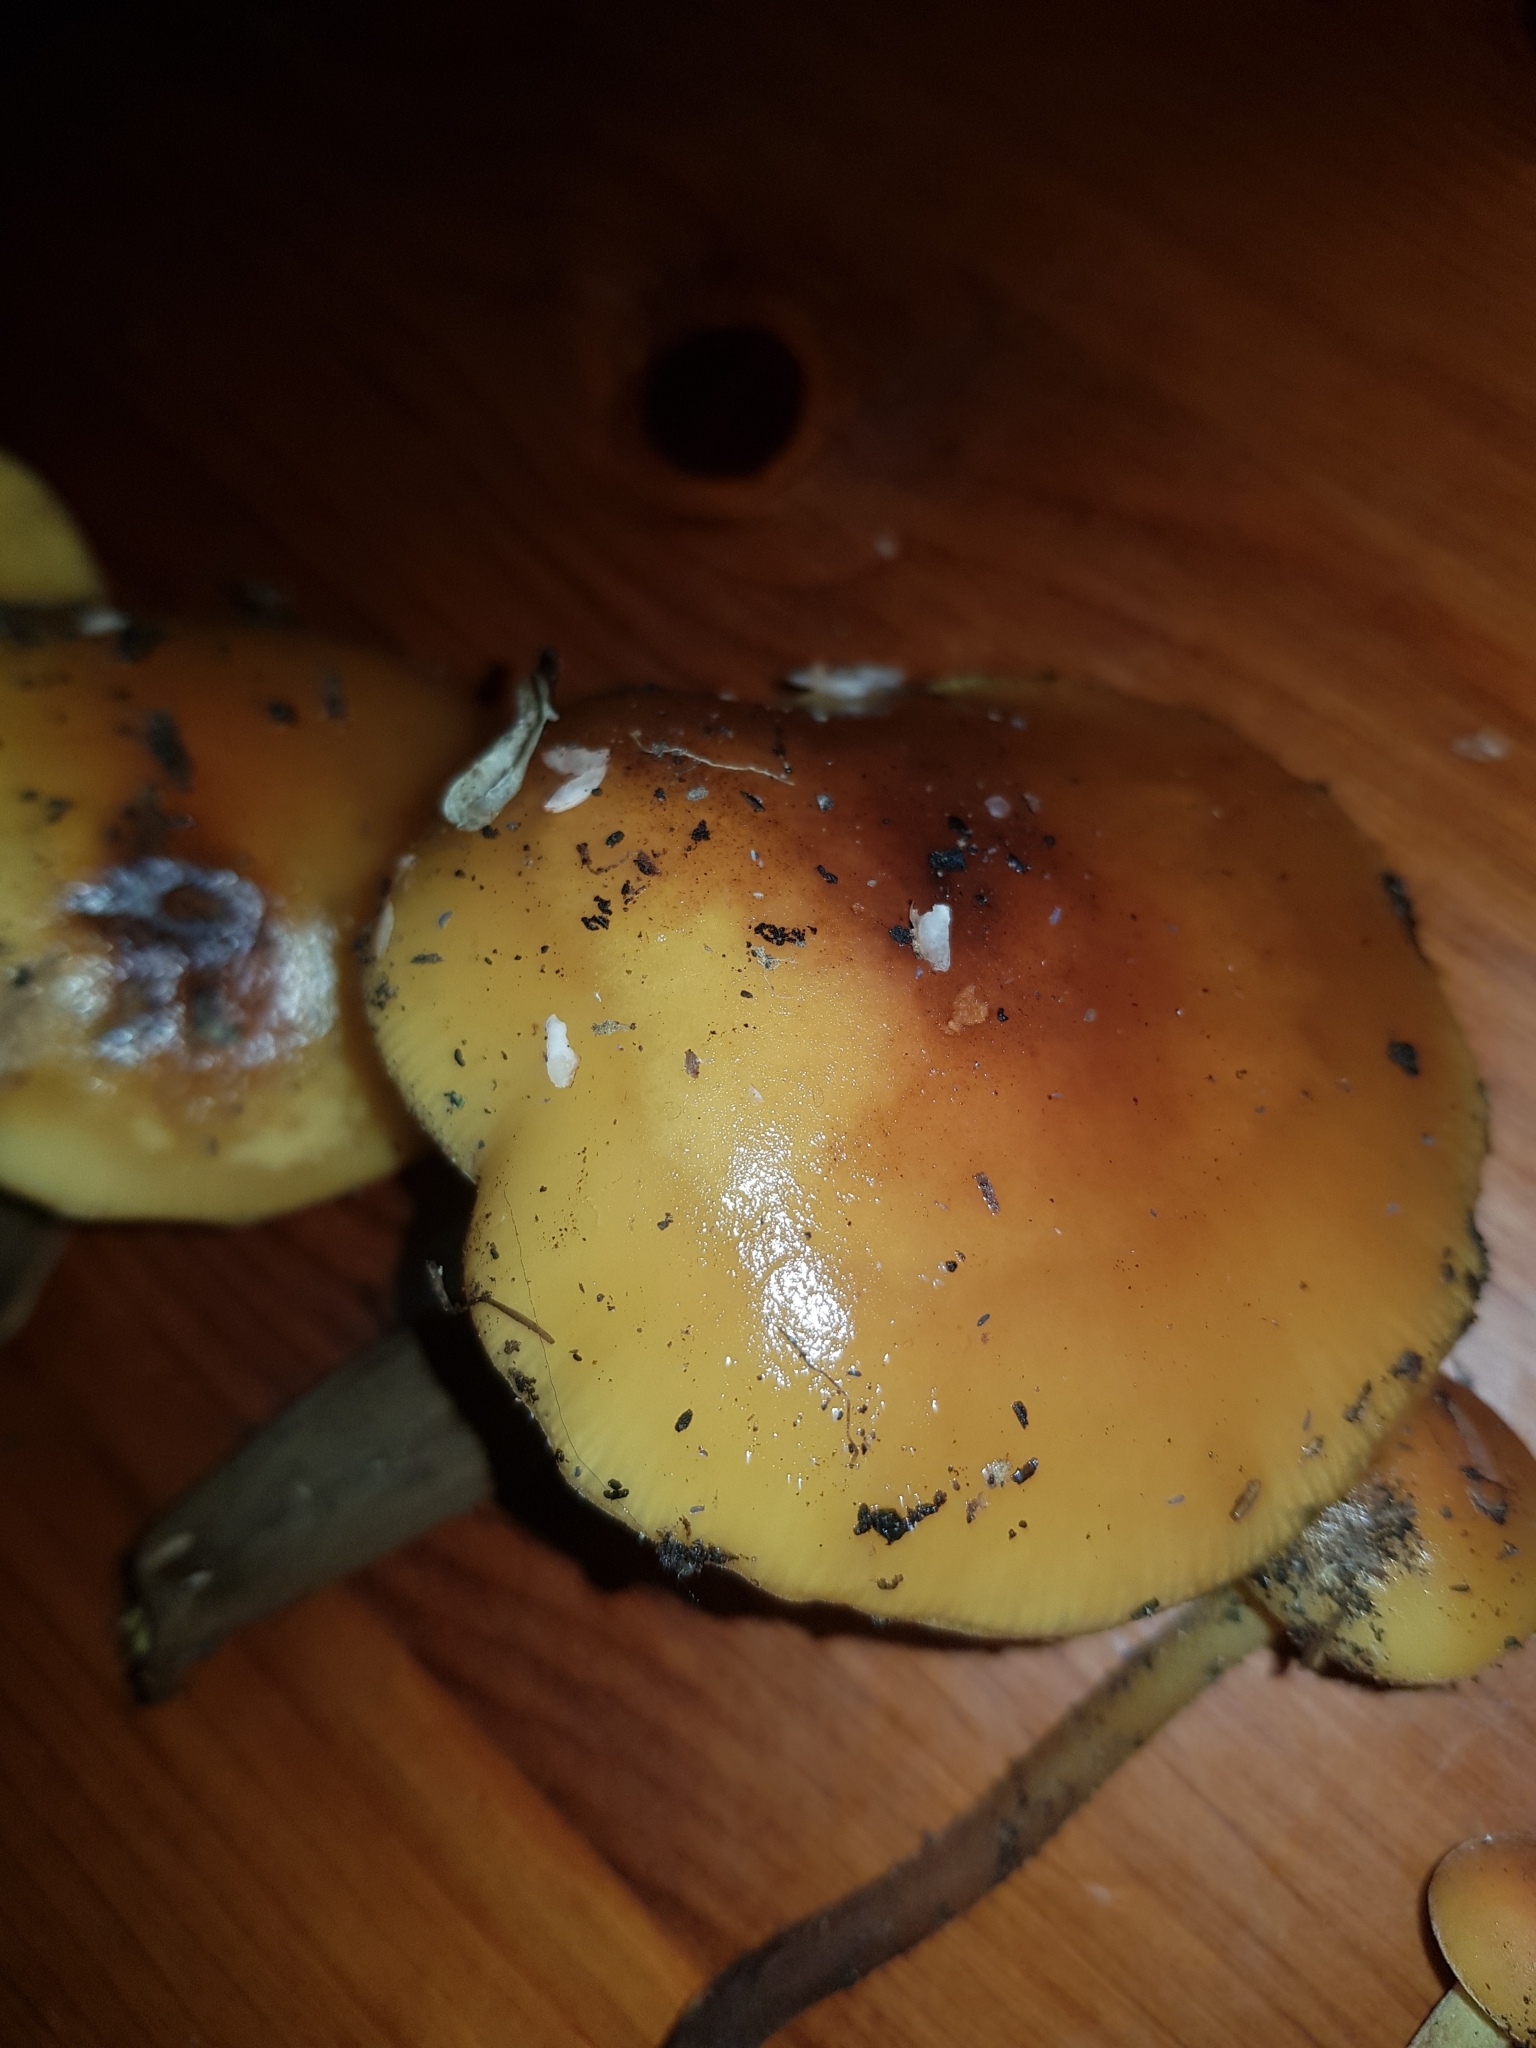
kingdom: Fungi
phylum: Basidiomycota
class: Agaricomycetes
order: Agaricales
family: Physalacriaceae
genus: Flammulina
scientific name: Flammulina velutipes
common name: Velvet shank
